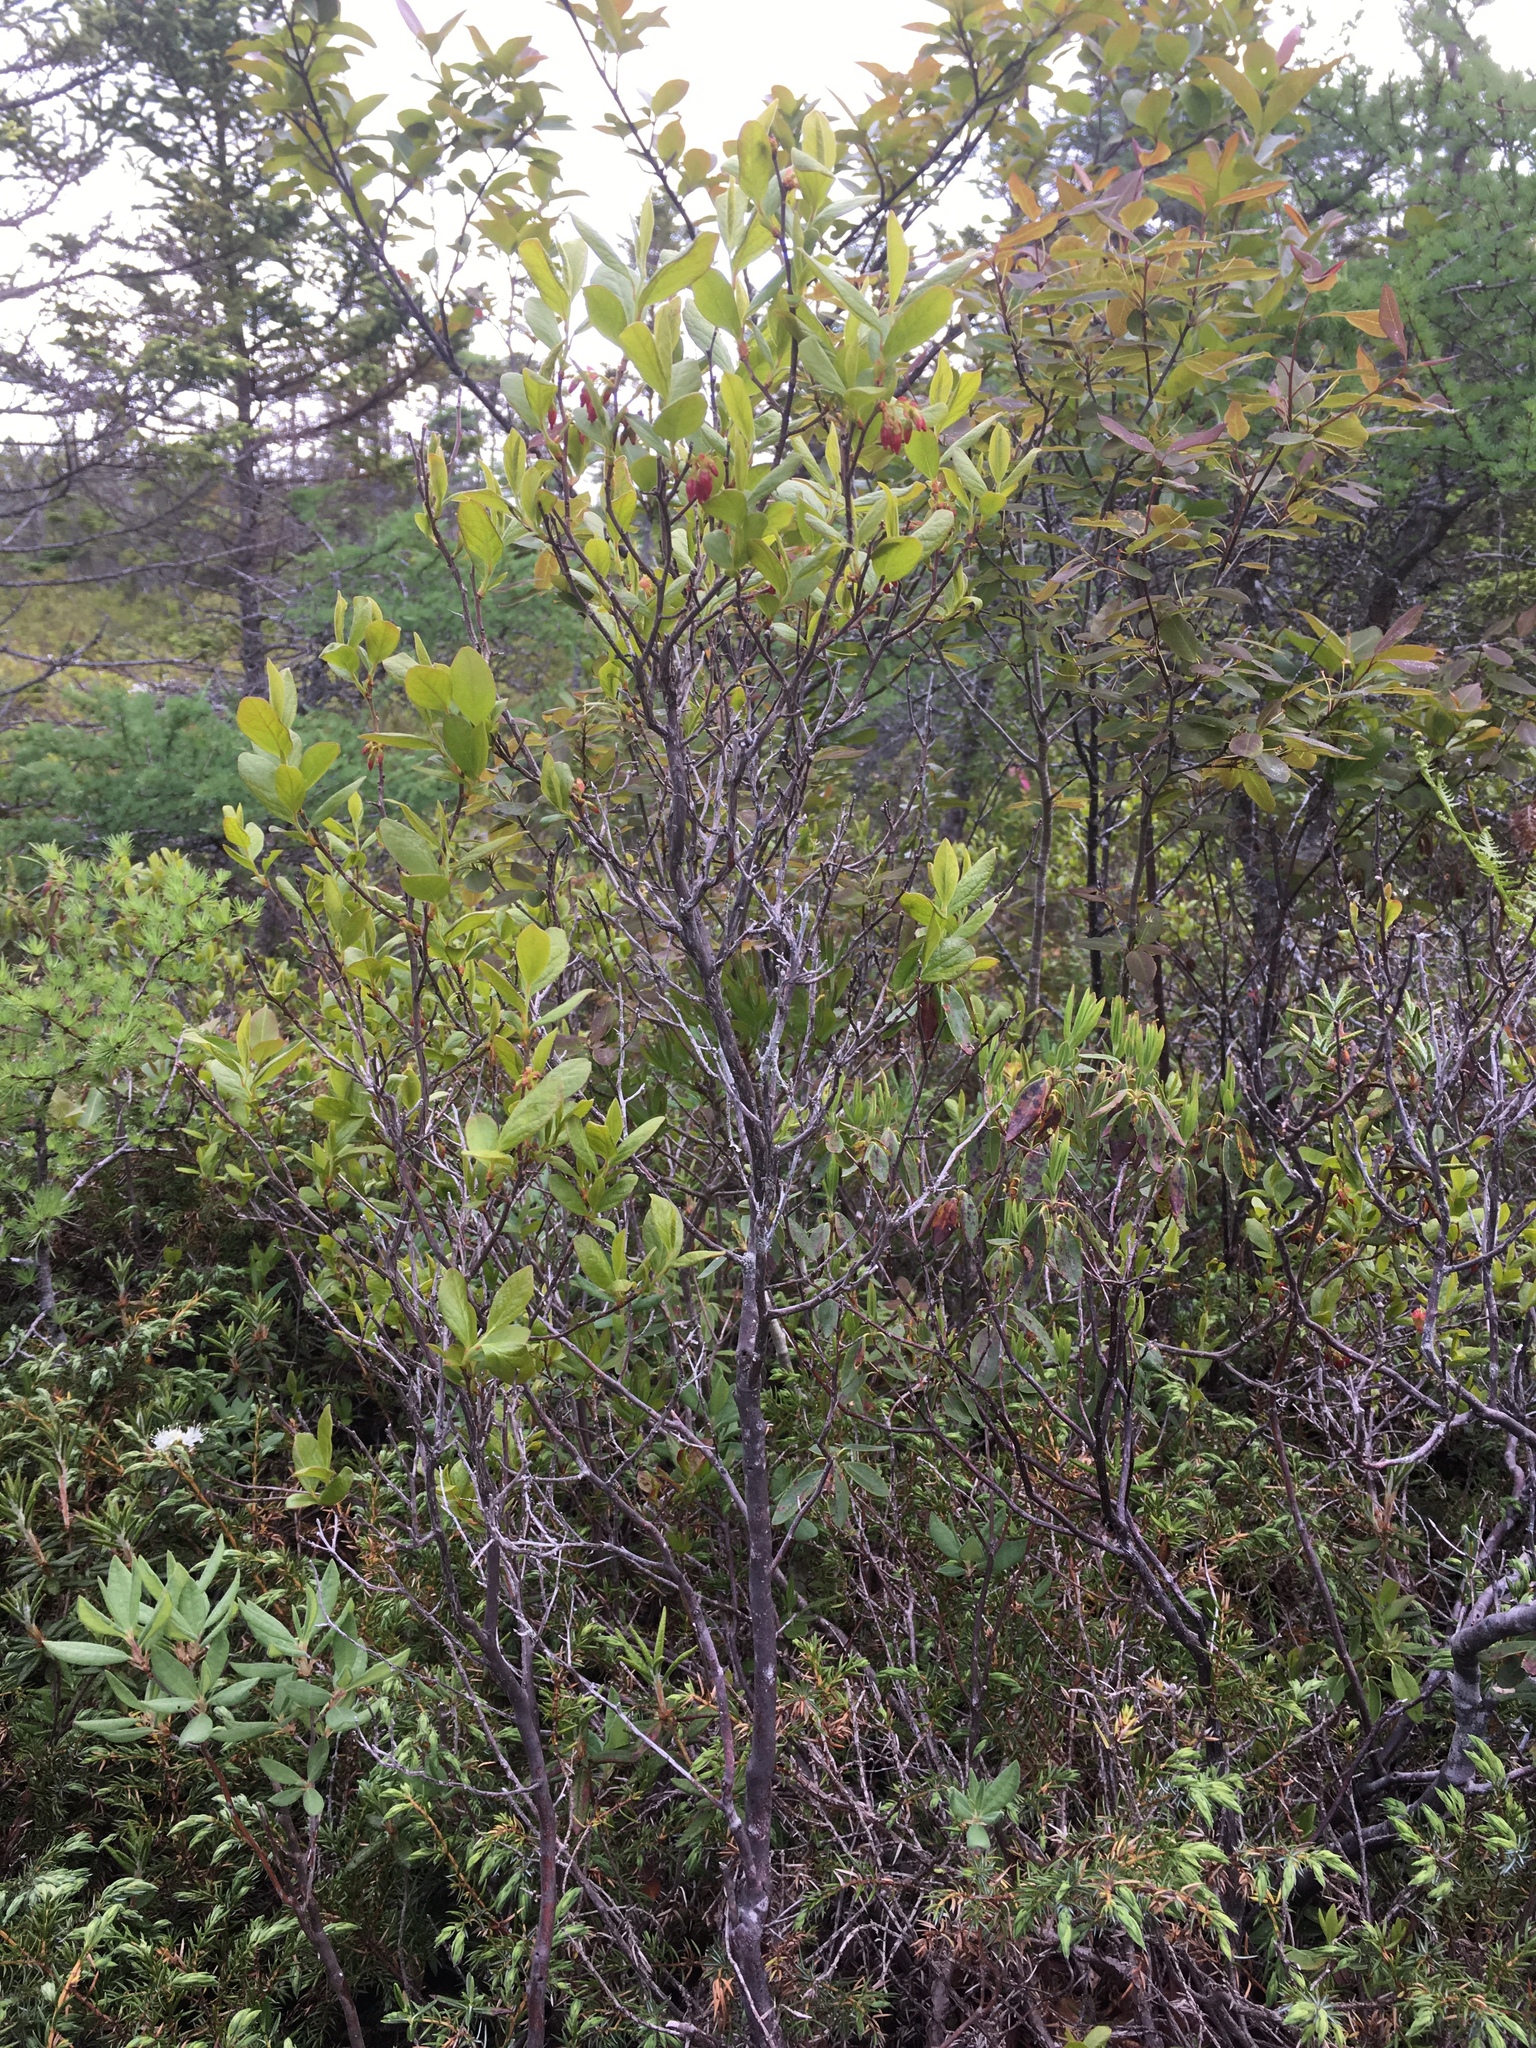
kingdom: Plantae
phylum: Tracheophyta
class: Magnoliopsida
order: Ericales
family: Ericaceae
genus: Gaylussacia
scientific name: Gaylussacia baccata
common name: Black huckleberry
